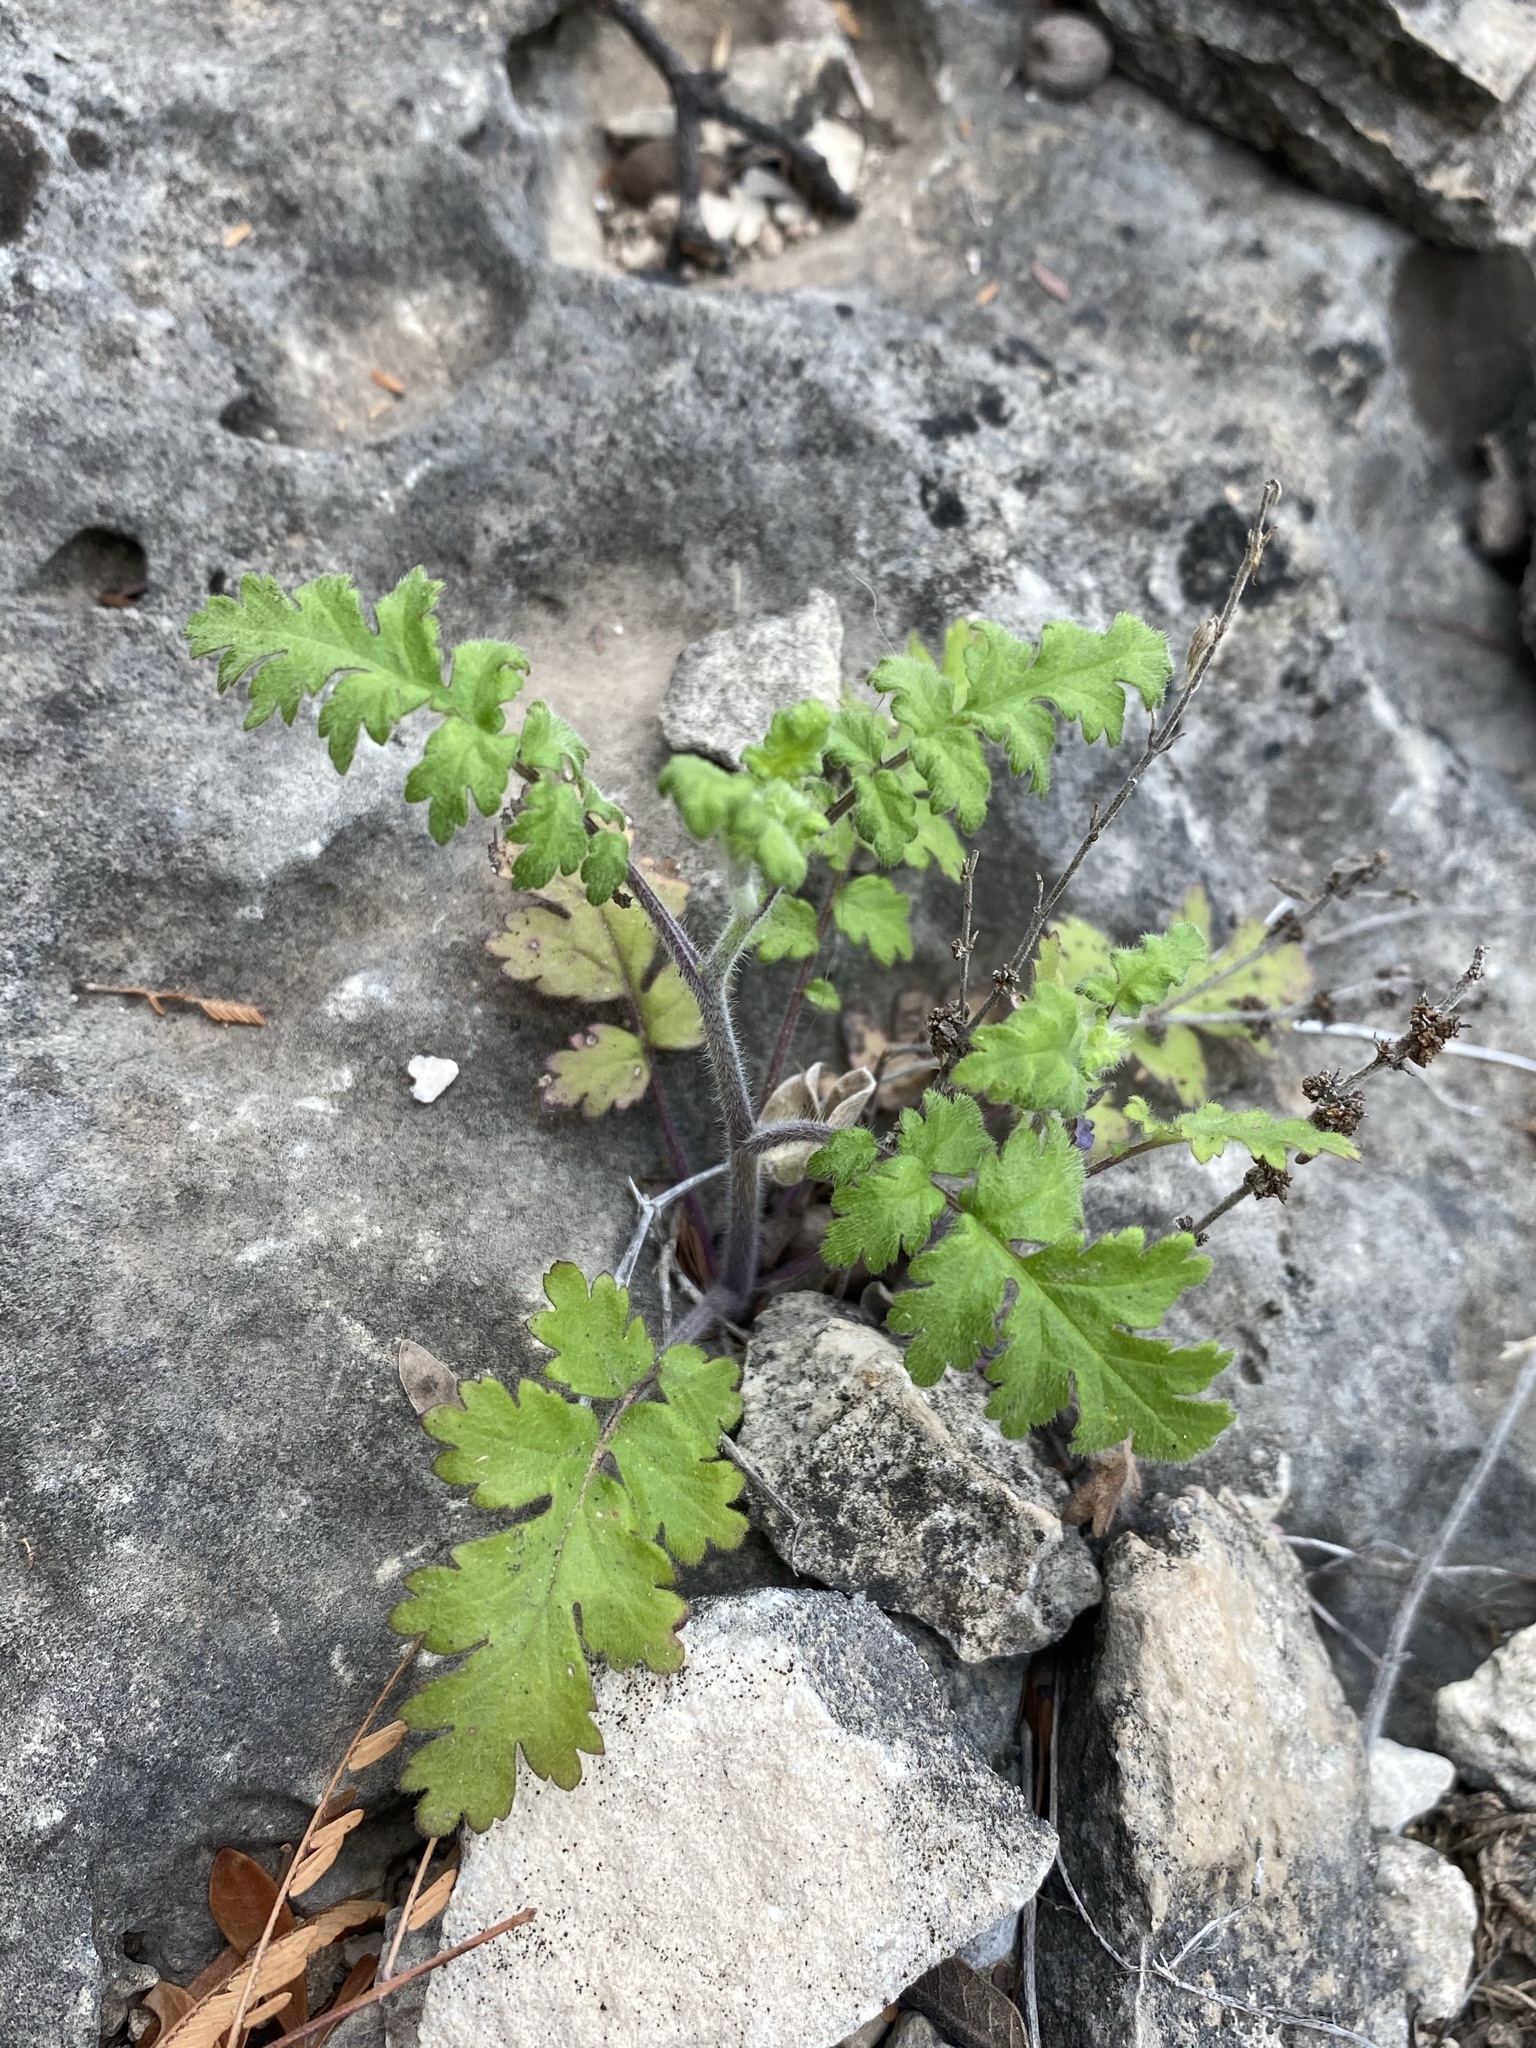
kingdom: Plantae
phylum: Tracheophyta
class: Magnoliopsida
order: Boraginales
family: Hydrophyllaceae
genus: Phacelia
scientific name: Phacelia congesta
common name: Blue curls
